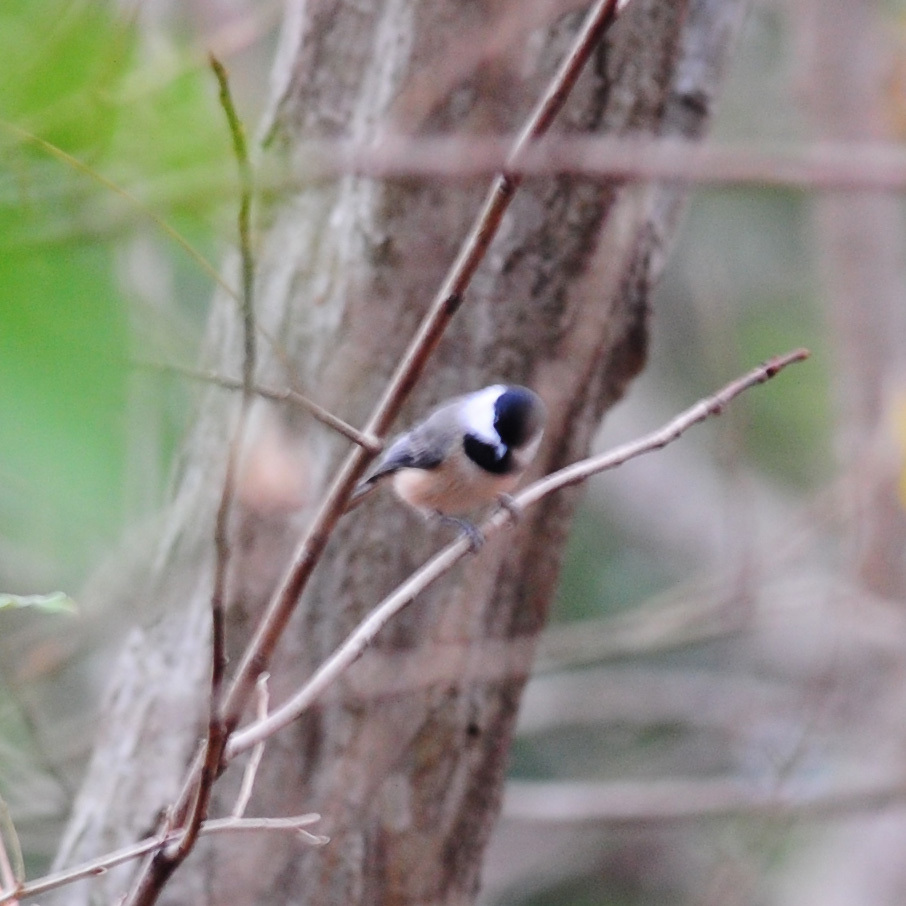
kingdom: Animalia
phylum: Chordata
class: Aves
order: Passeriformes
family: Paridae
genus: Poecile
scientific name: Poecile carolinensis
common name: Carolina chickadee
